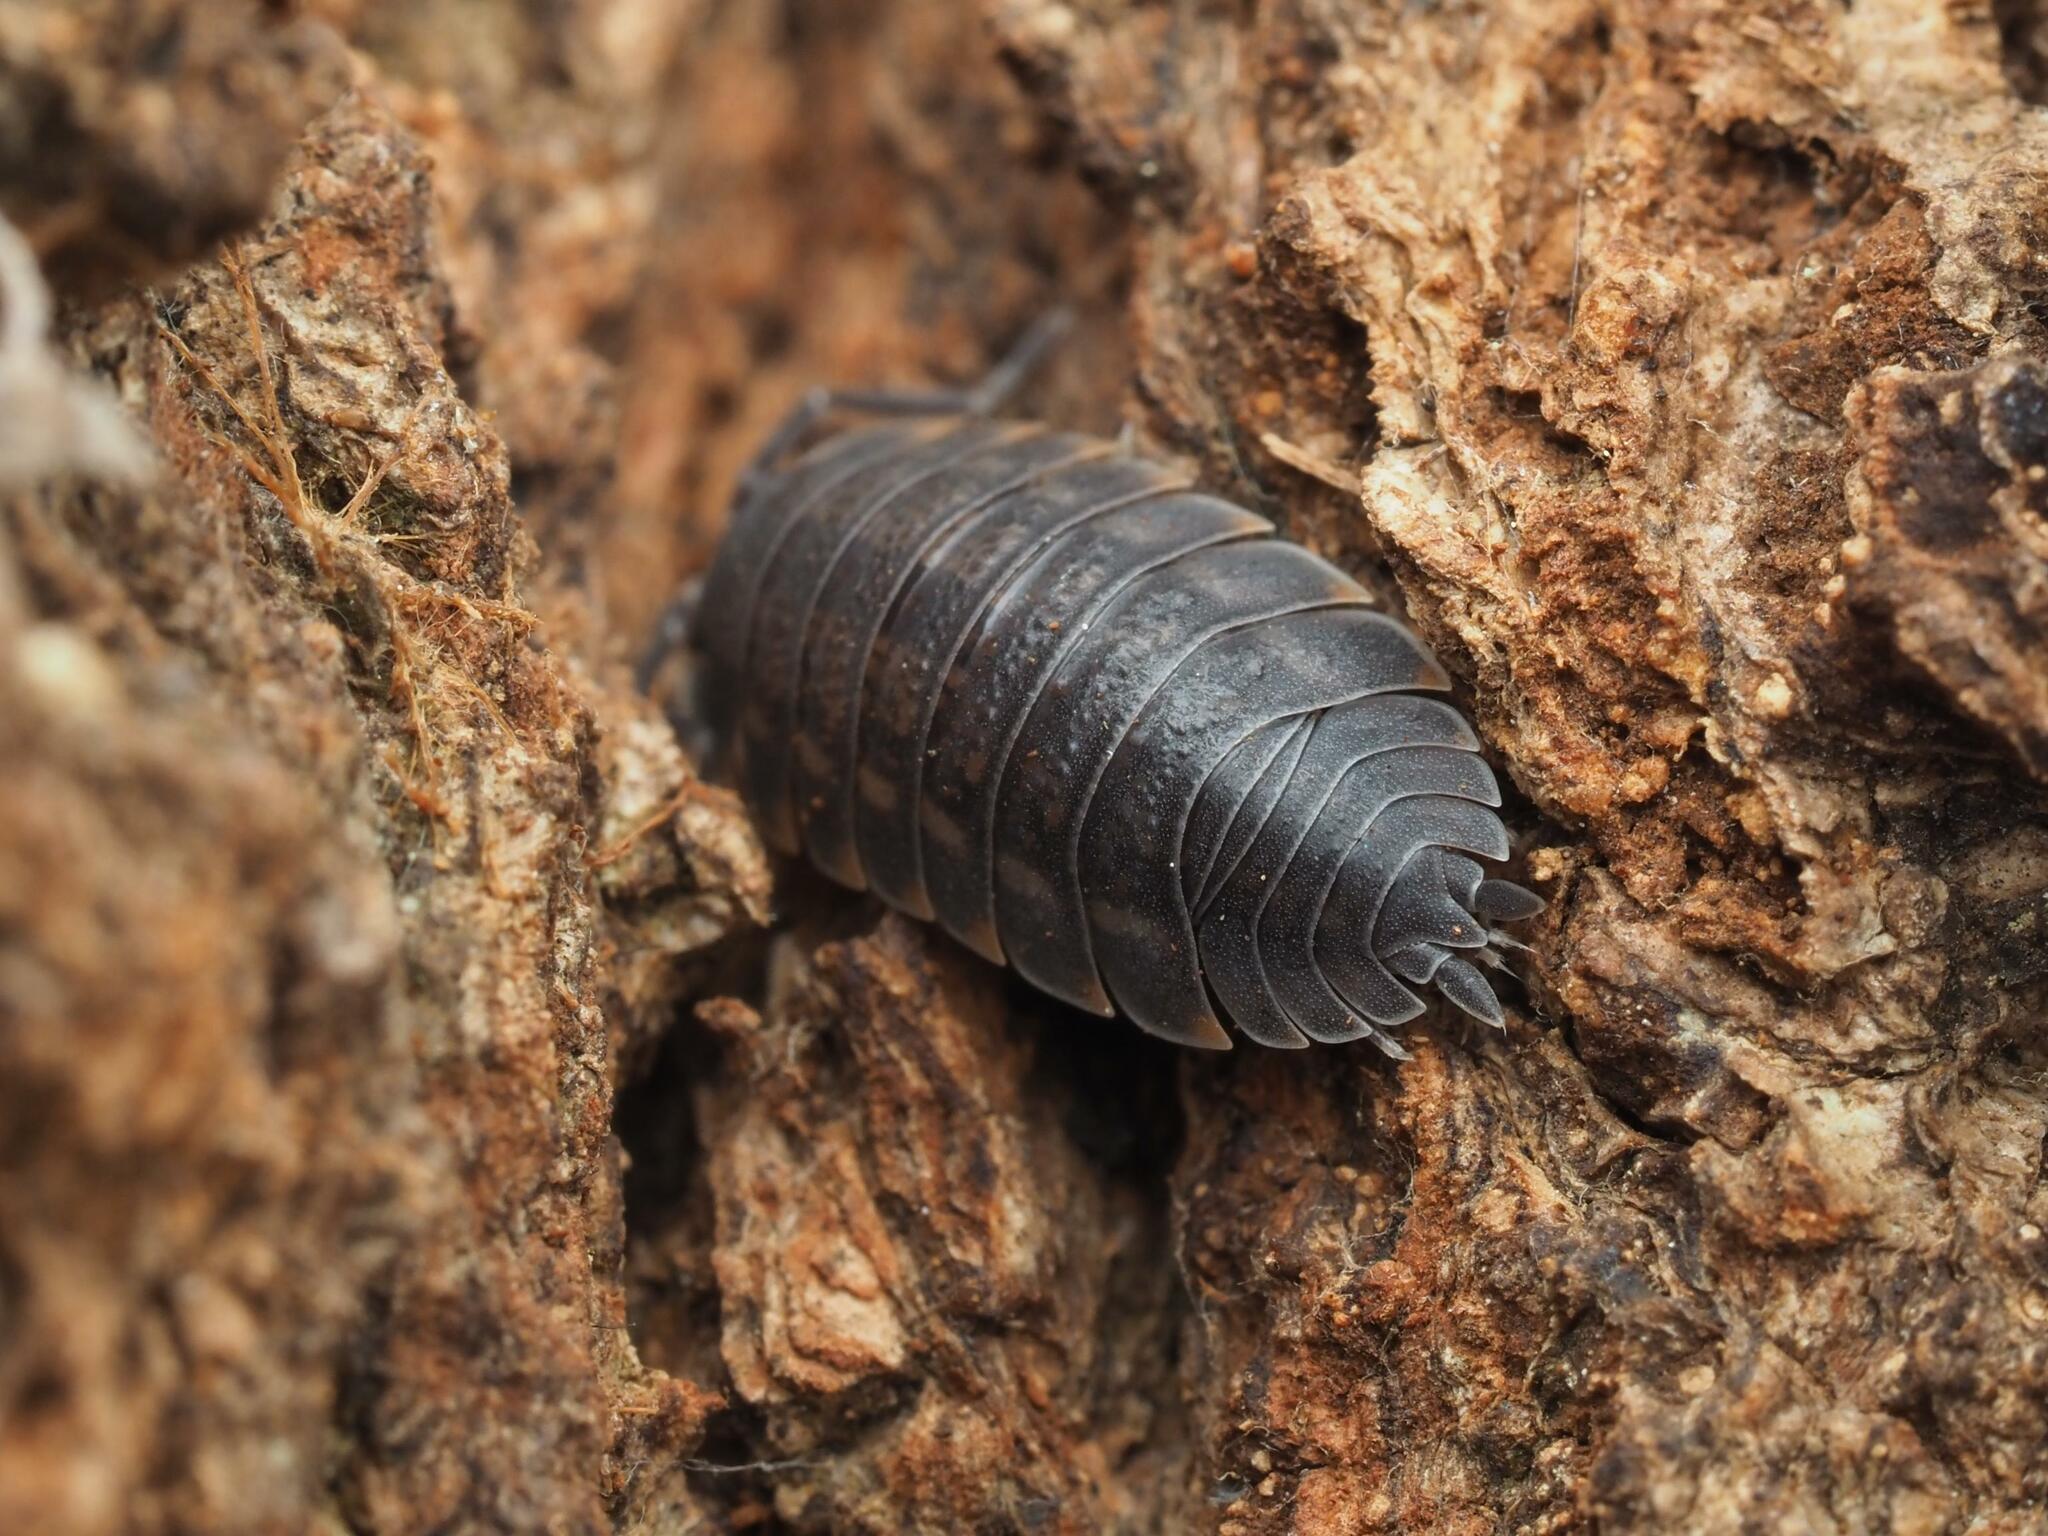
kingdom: Animalia
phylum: Arthropoda
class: Malacostraca
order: Isopoda
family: Trachelipodidae
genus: Trachelipus
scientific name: Trachelipus ratzeburgii
